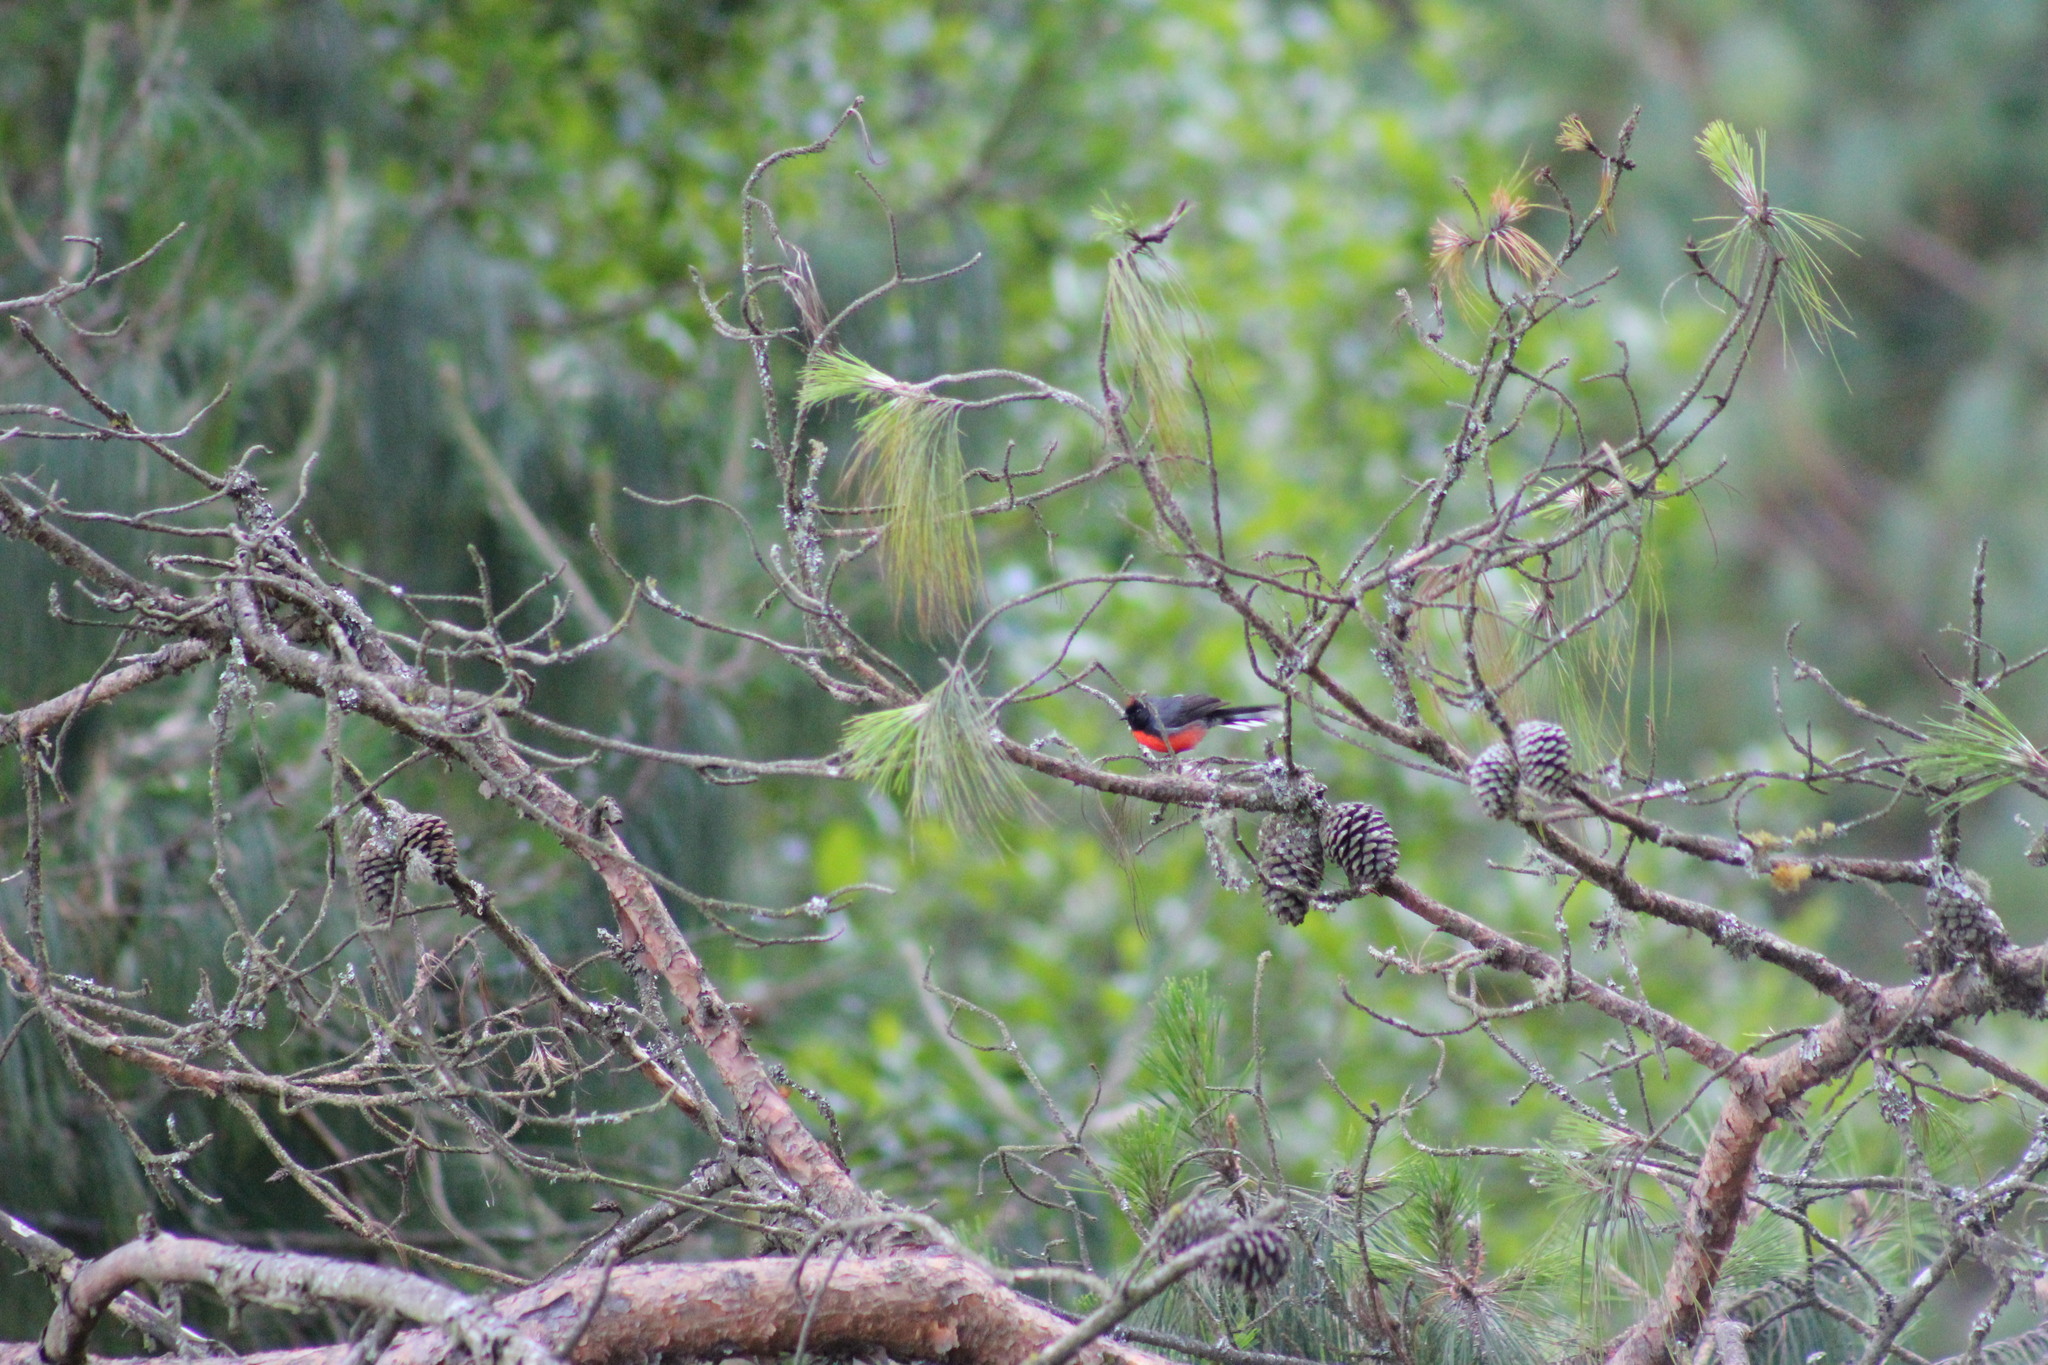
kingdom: Animalia
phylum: Chordata
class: Aves
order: Passeriformes
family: Parulidae
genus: Myioborus
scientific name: Myioborus miniatus
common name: Slate-throated redstart
